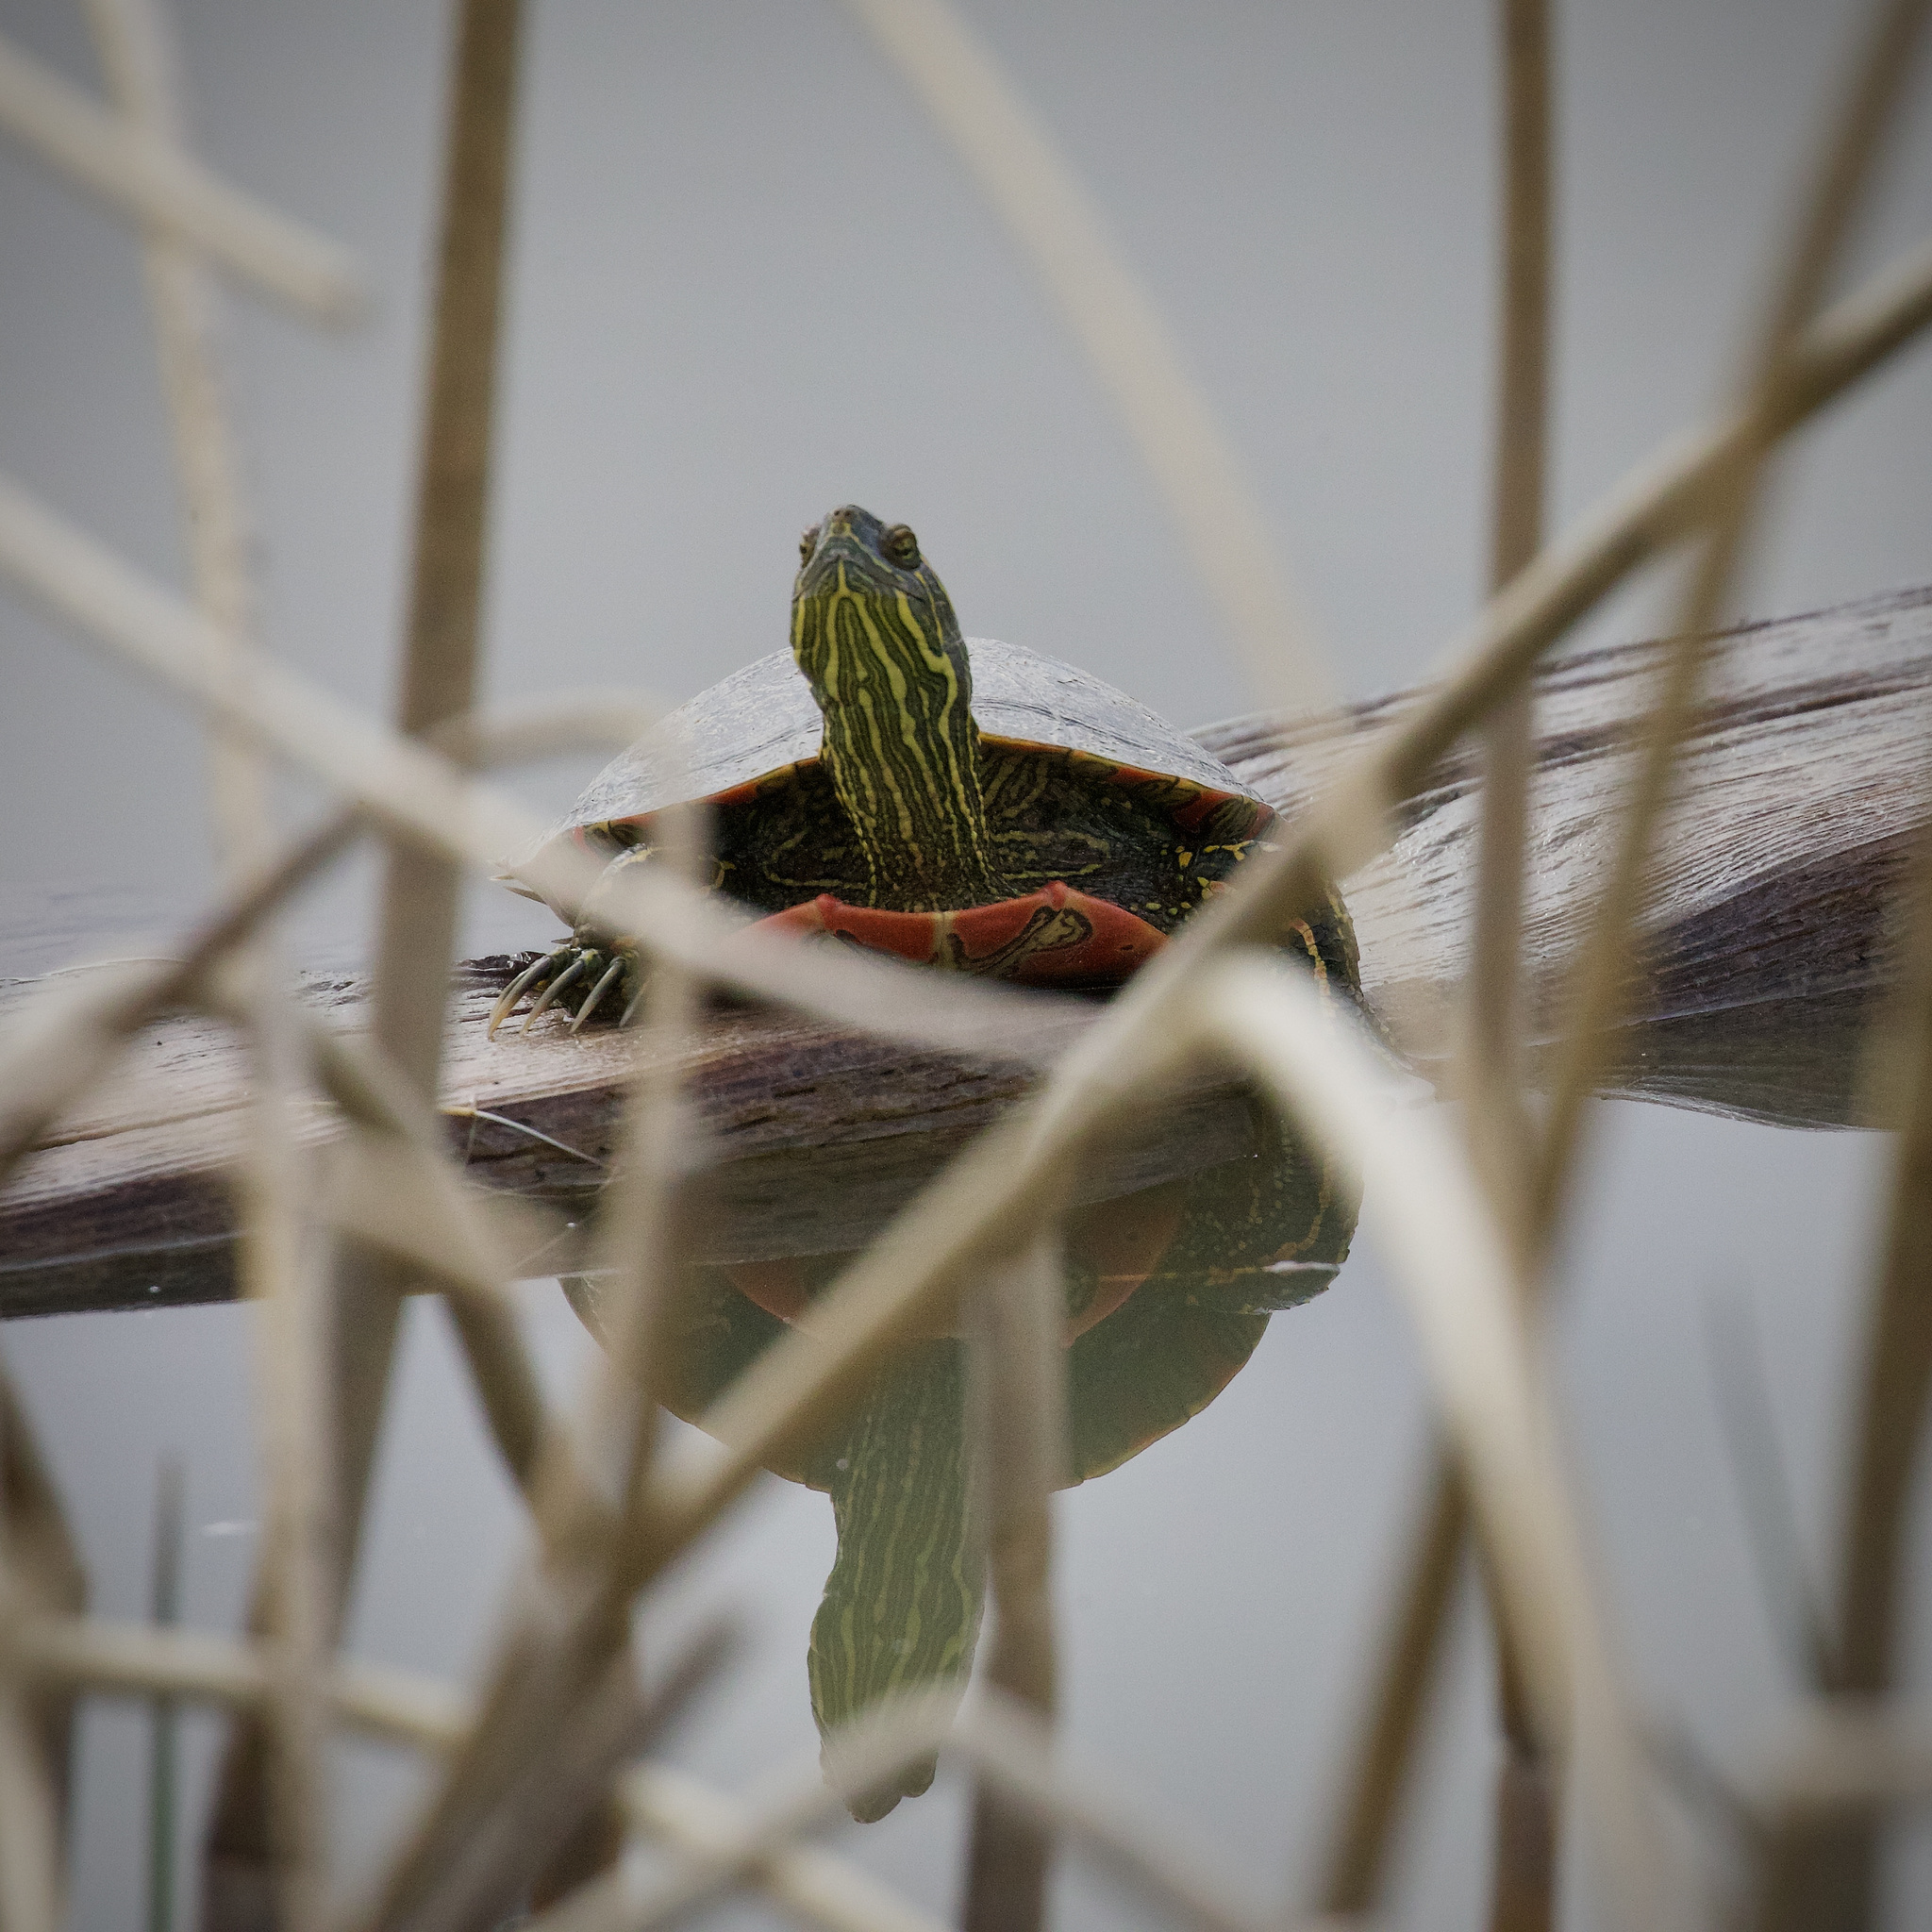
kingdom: Animalia
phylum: Chordata
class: Testudines
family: Emydidae
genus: Chrysemys
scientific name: Chrysemys picta
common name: Painted turtle
